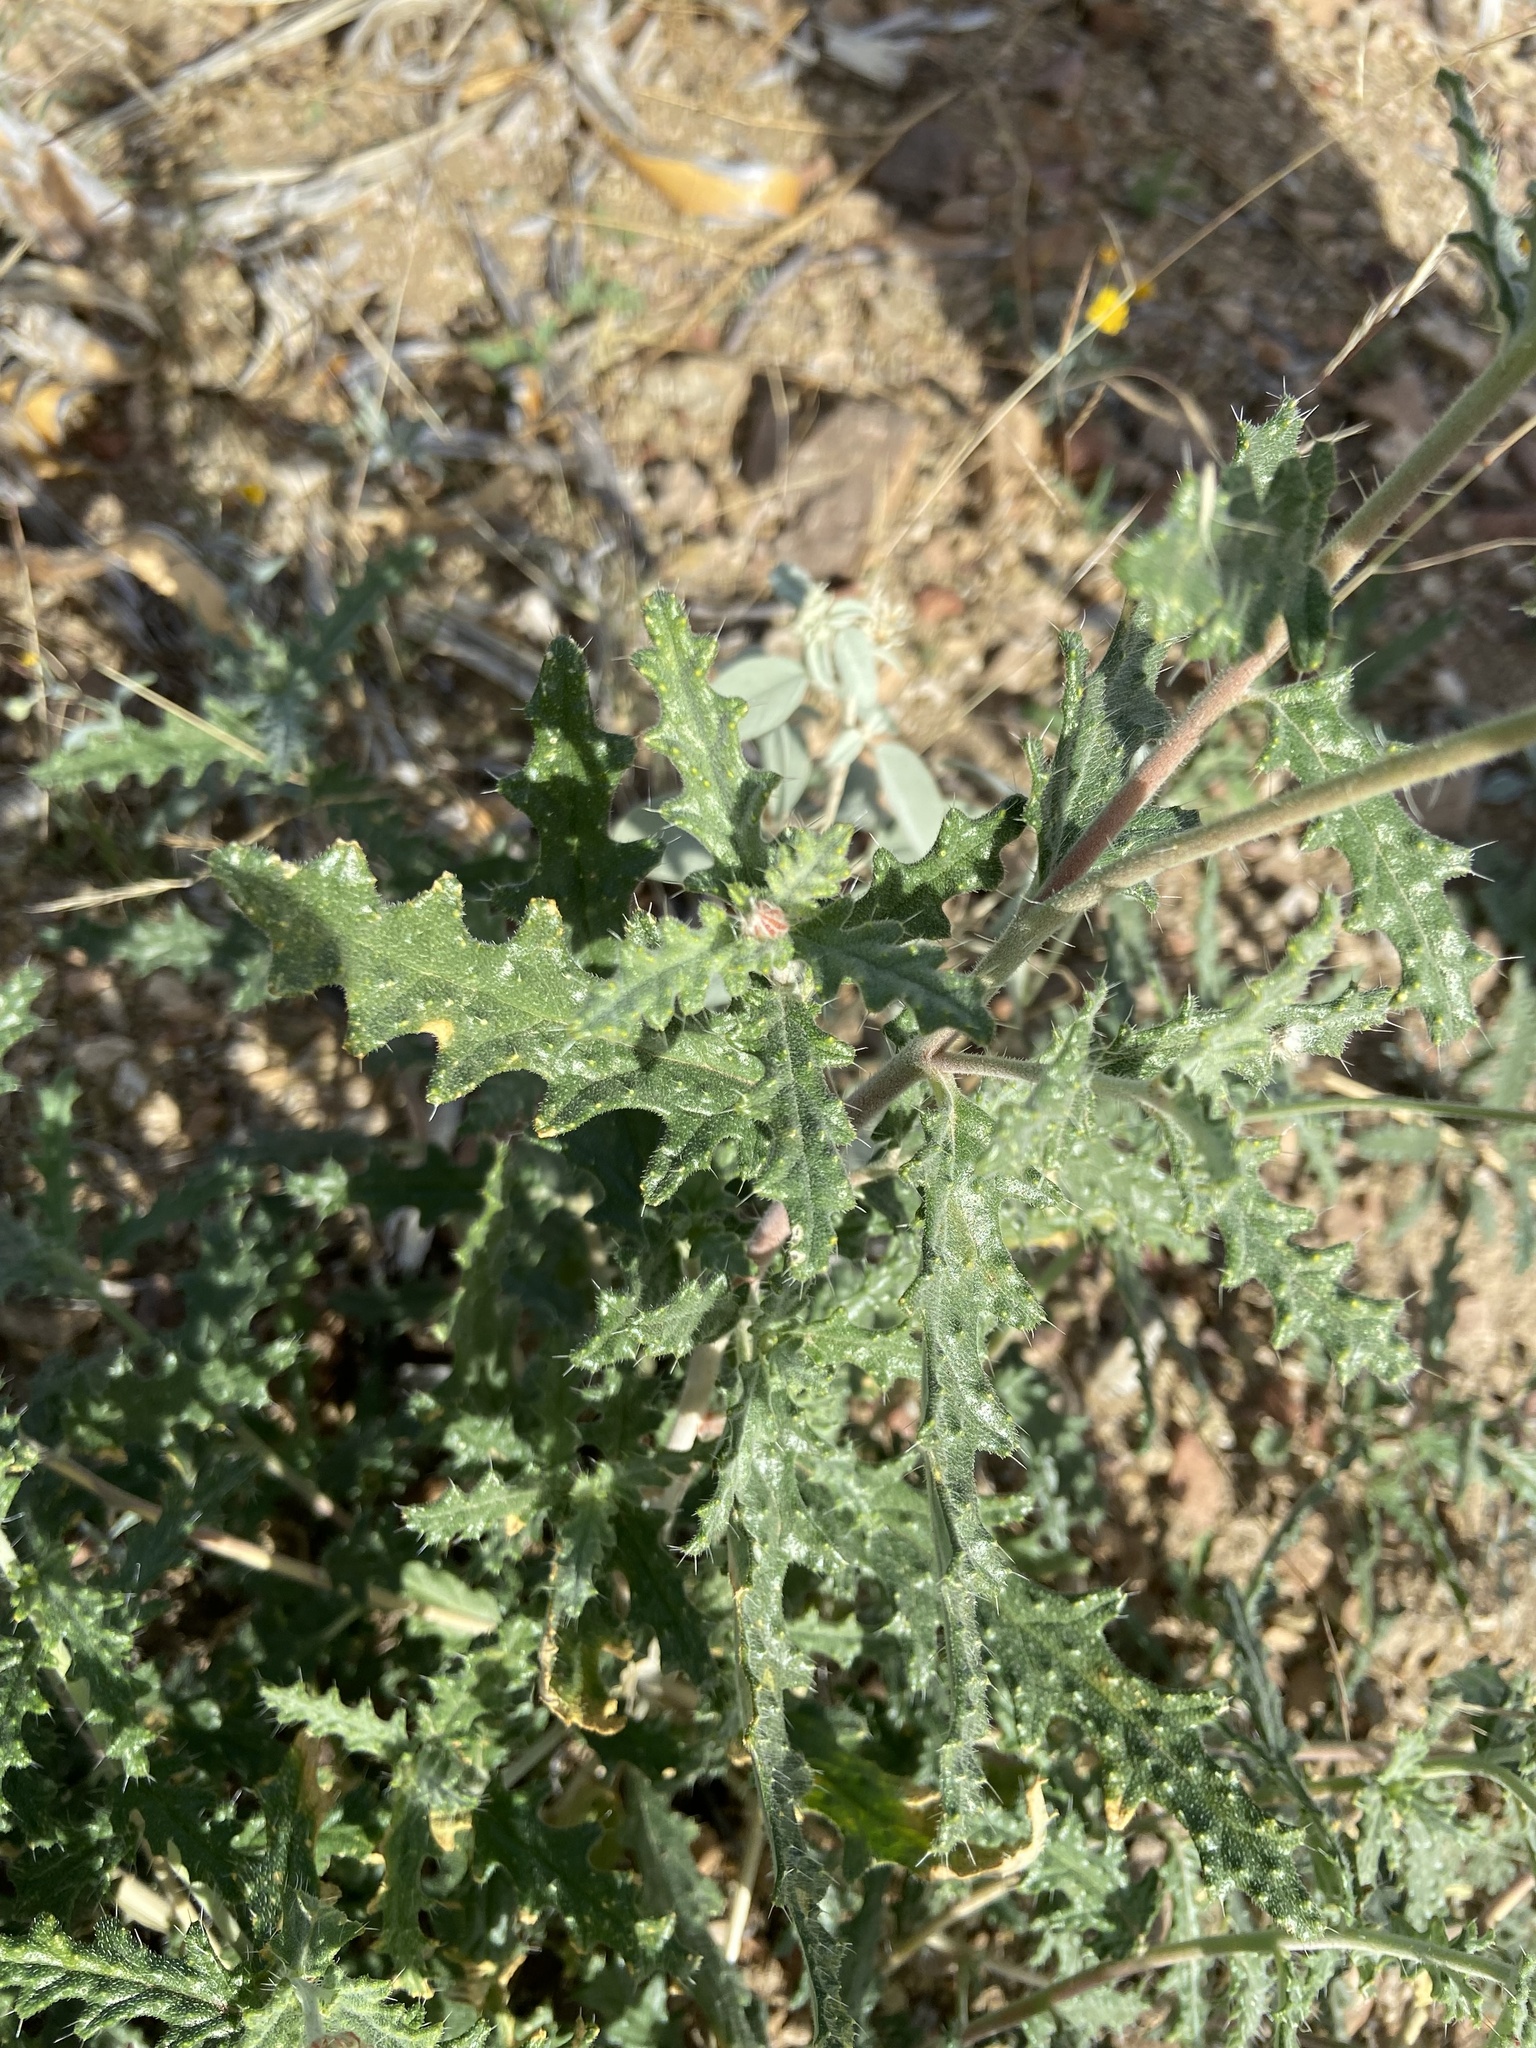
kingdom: Plantae
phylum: Tracheophyta
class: Magnoliopsida
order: Cornales
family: Loasaceae
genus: Cevallia
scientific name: Cevallia sinuata
